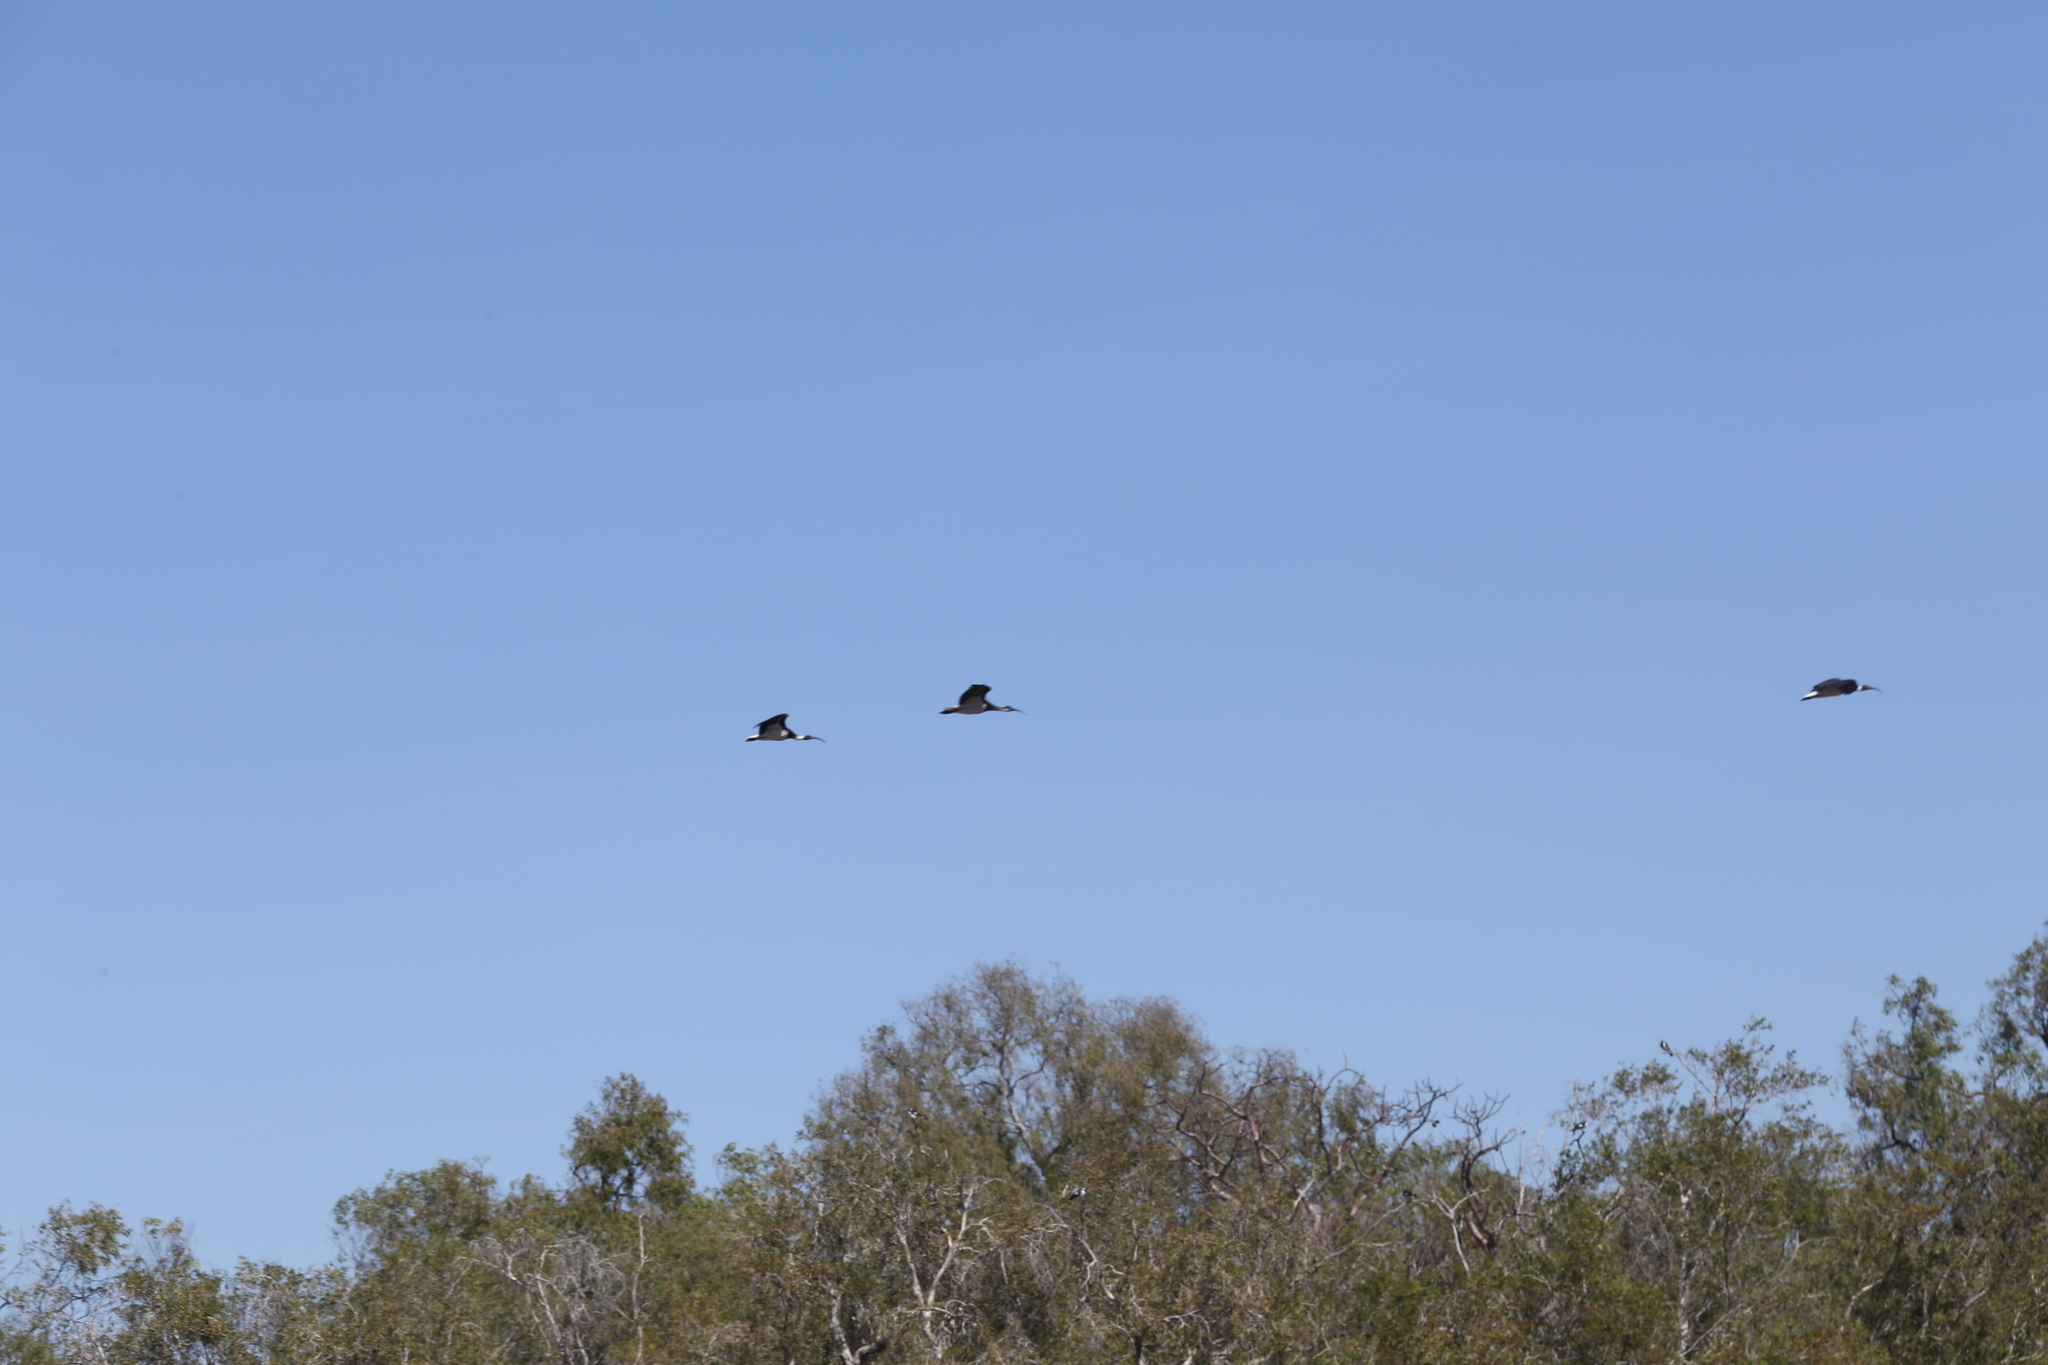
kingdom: Animalia
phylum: Chordata
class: Aves
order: Pelecaniformes
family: Threskiornithidae
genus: Threskiornis
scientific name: Threskiornis spinicollis
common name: Straw-necked ibis
